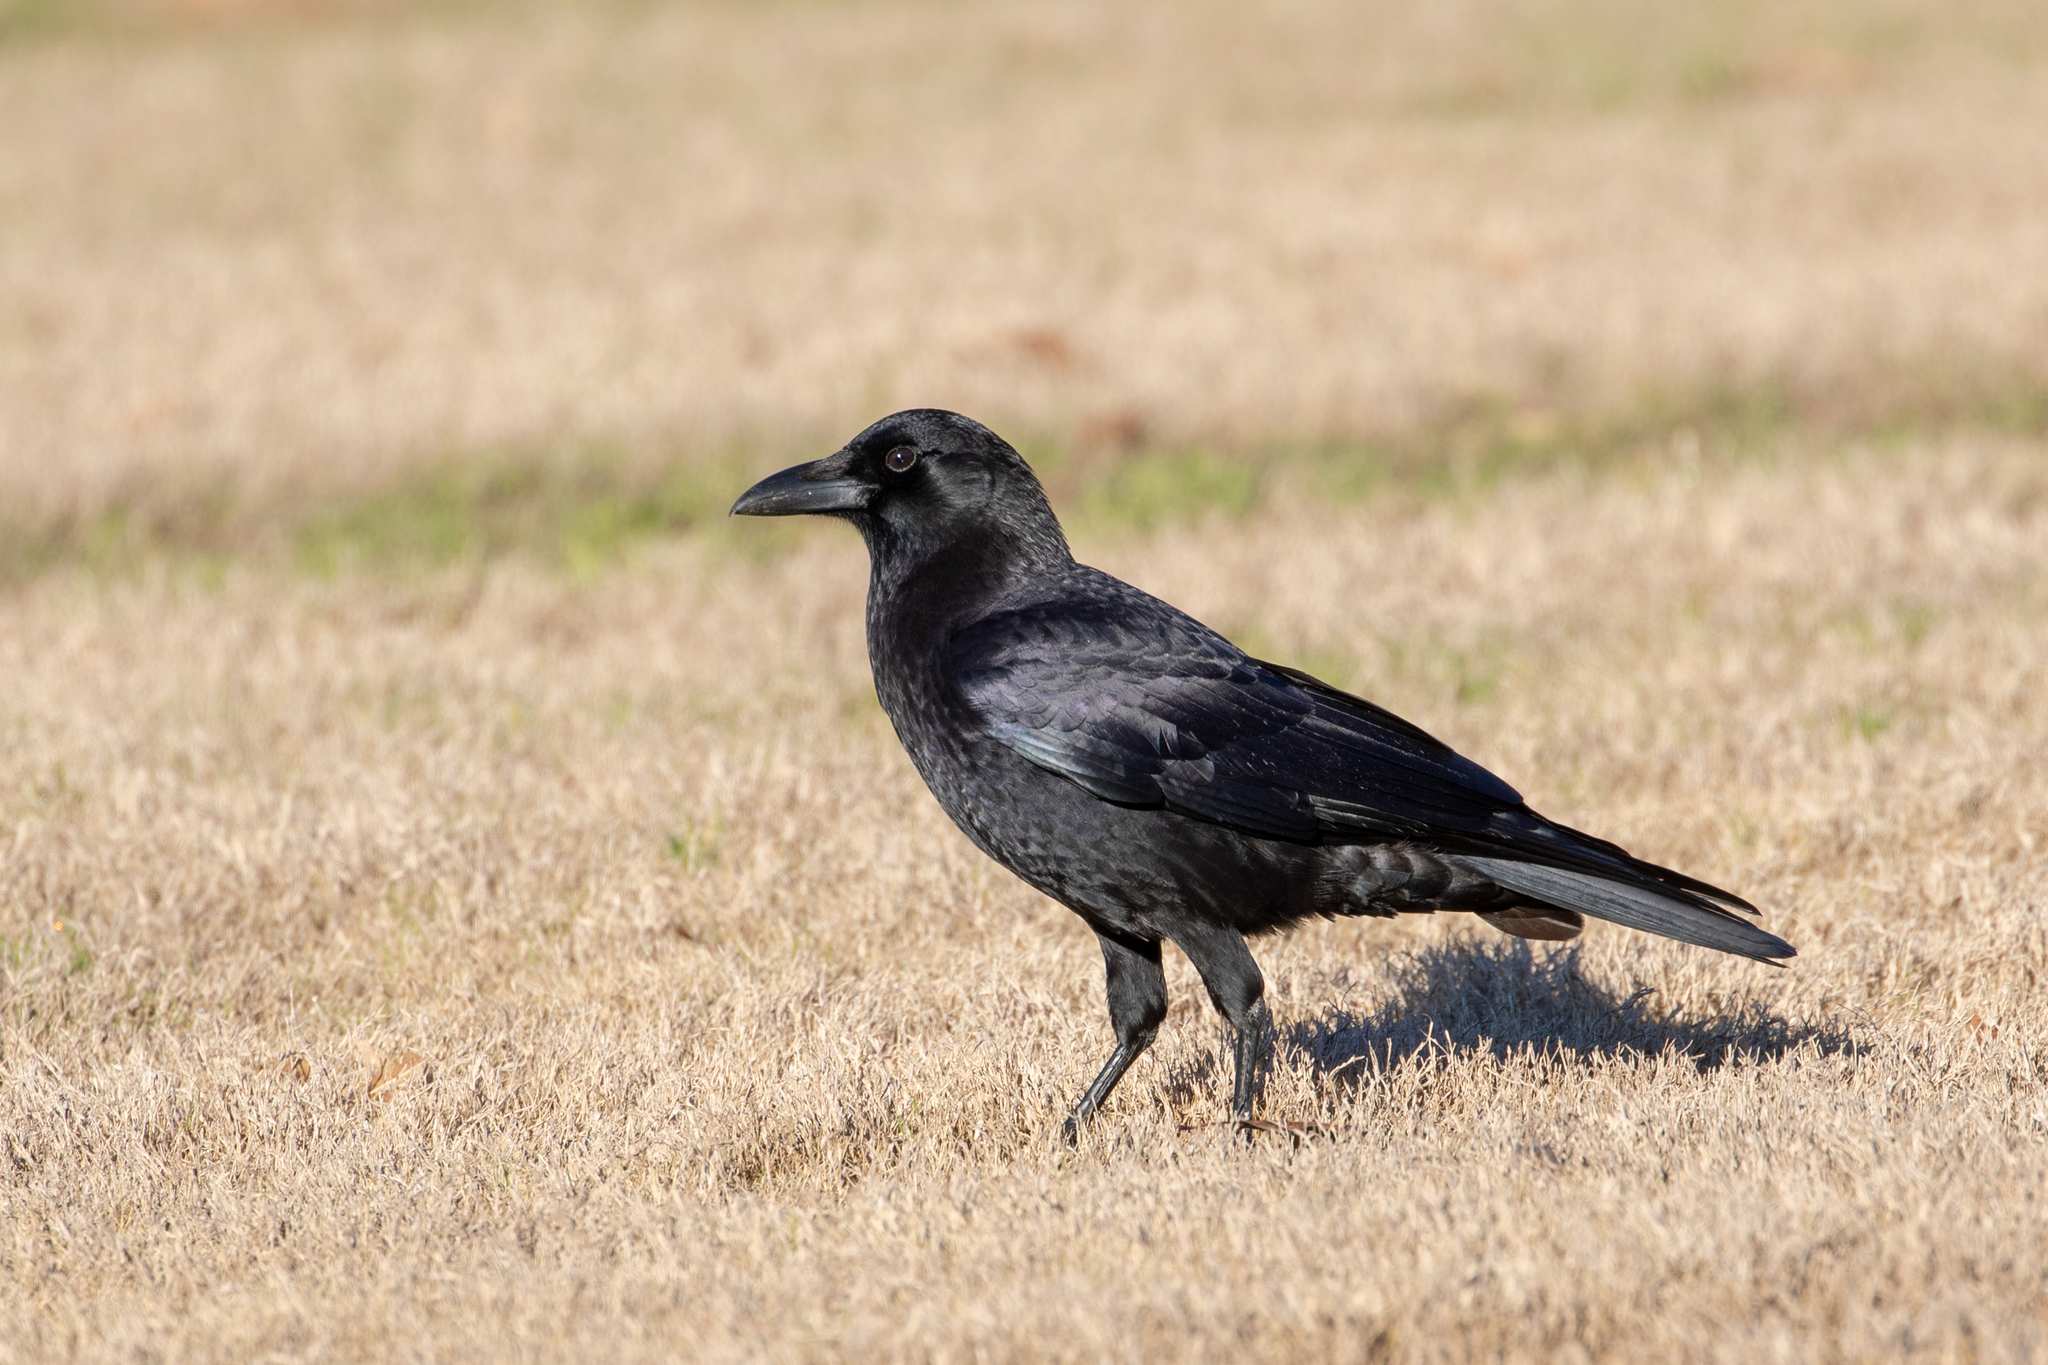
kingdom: Animalia
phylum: Chordata
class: Aves
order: Passeriformes
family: Corvidae
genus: Corvus
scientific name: Corvus brachyrhynchos
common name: American crow
